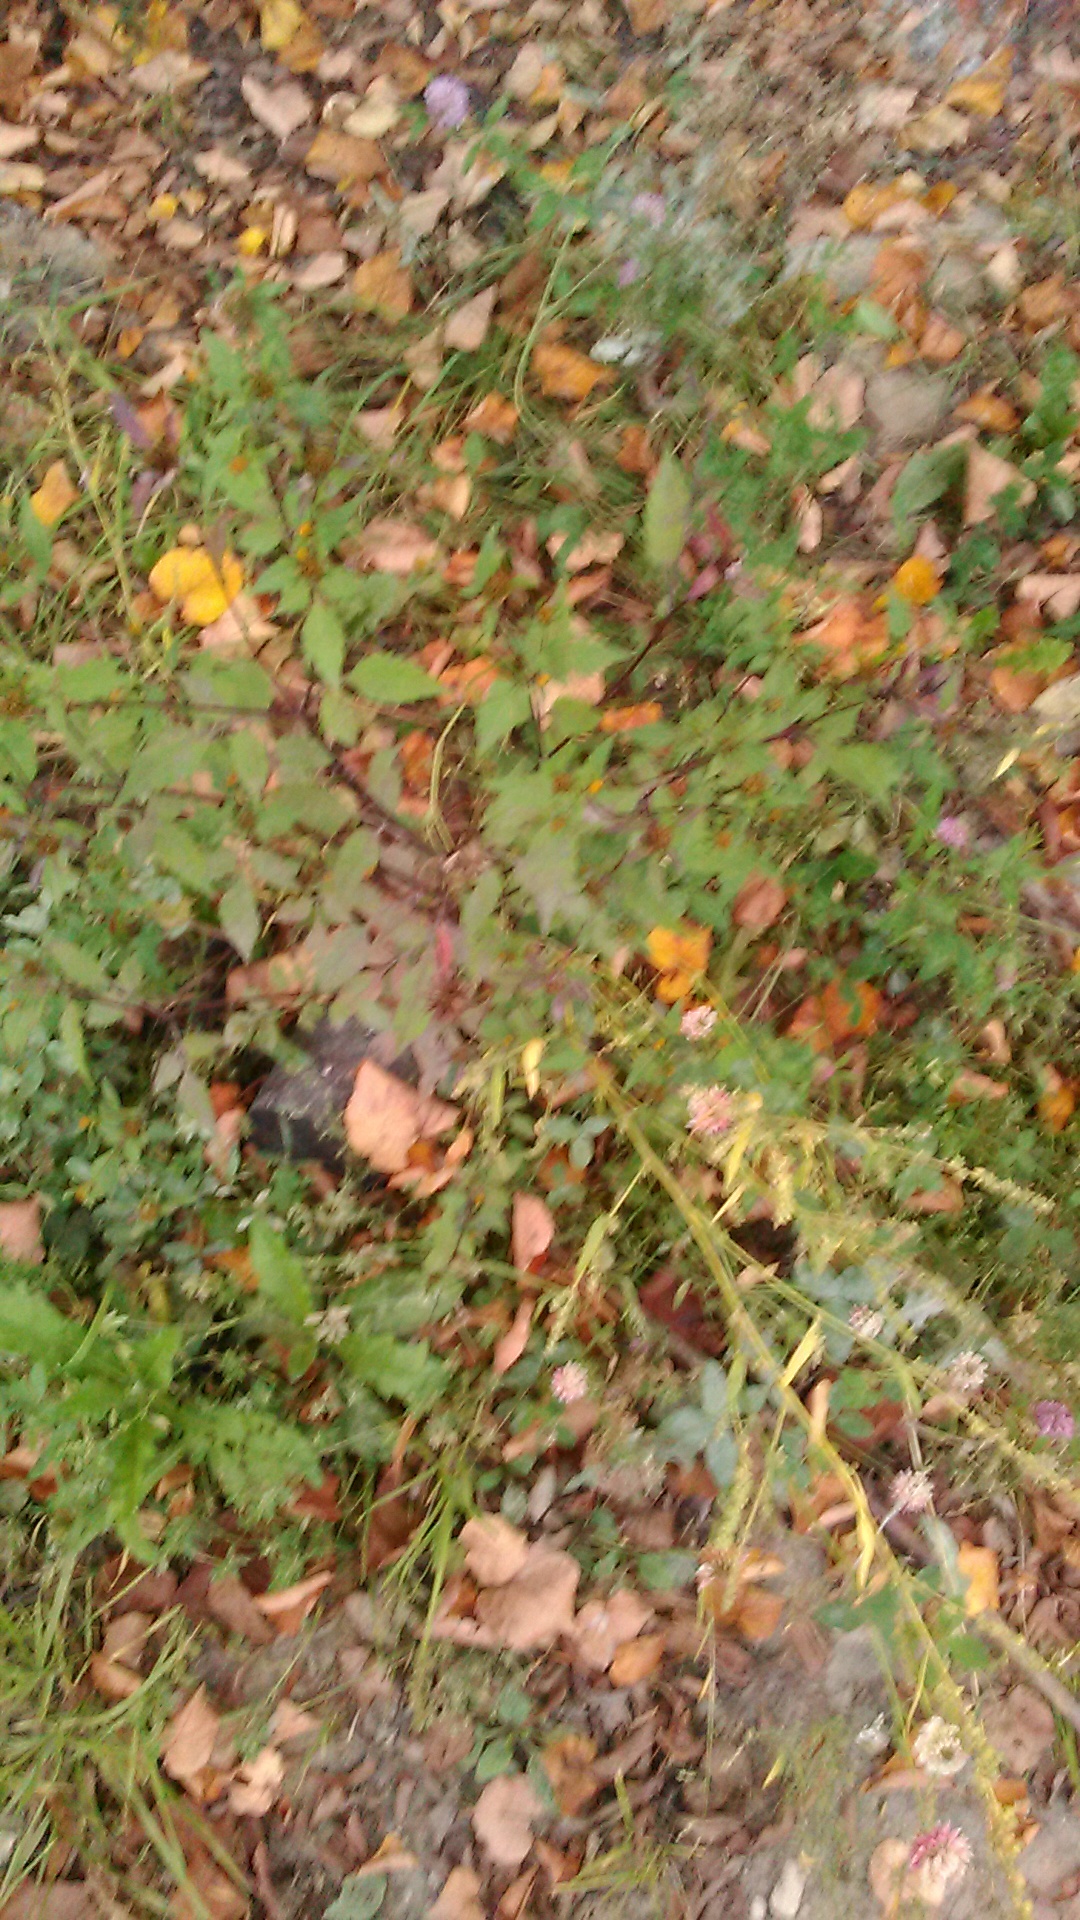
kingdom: Plantae
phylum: Tracheophyta
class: Magnoliopsida
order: Asterales
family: Asteraceae
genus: Bidens
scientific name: Bidens frondosa
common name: Beggarticks
